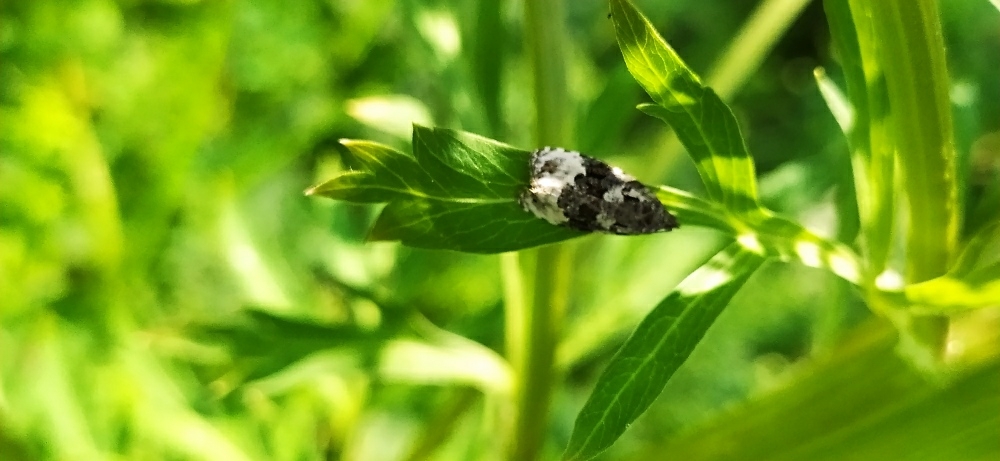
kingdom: Animalia
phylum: Arthropoda
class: Insecta
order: Lepidoptera
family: Tortricidae
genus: Apotomis
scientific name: Apotomis turbidana
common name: White-shouldered marble
